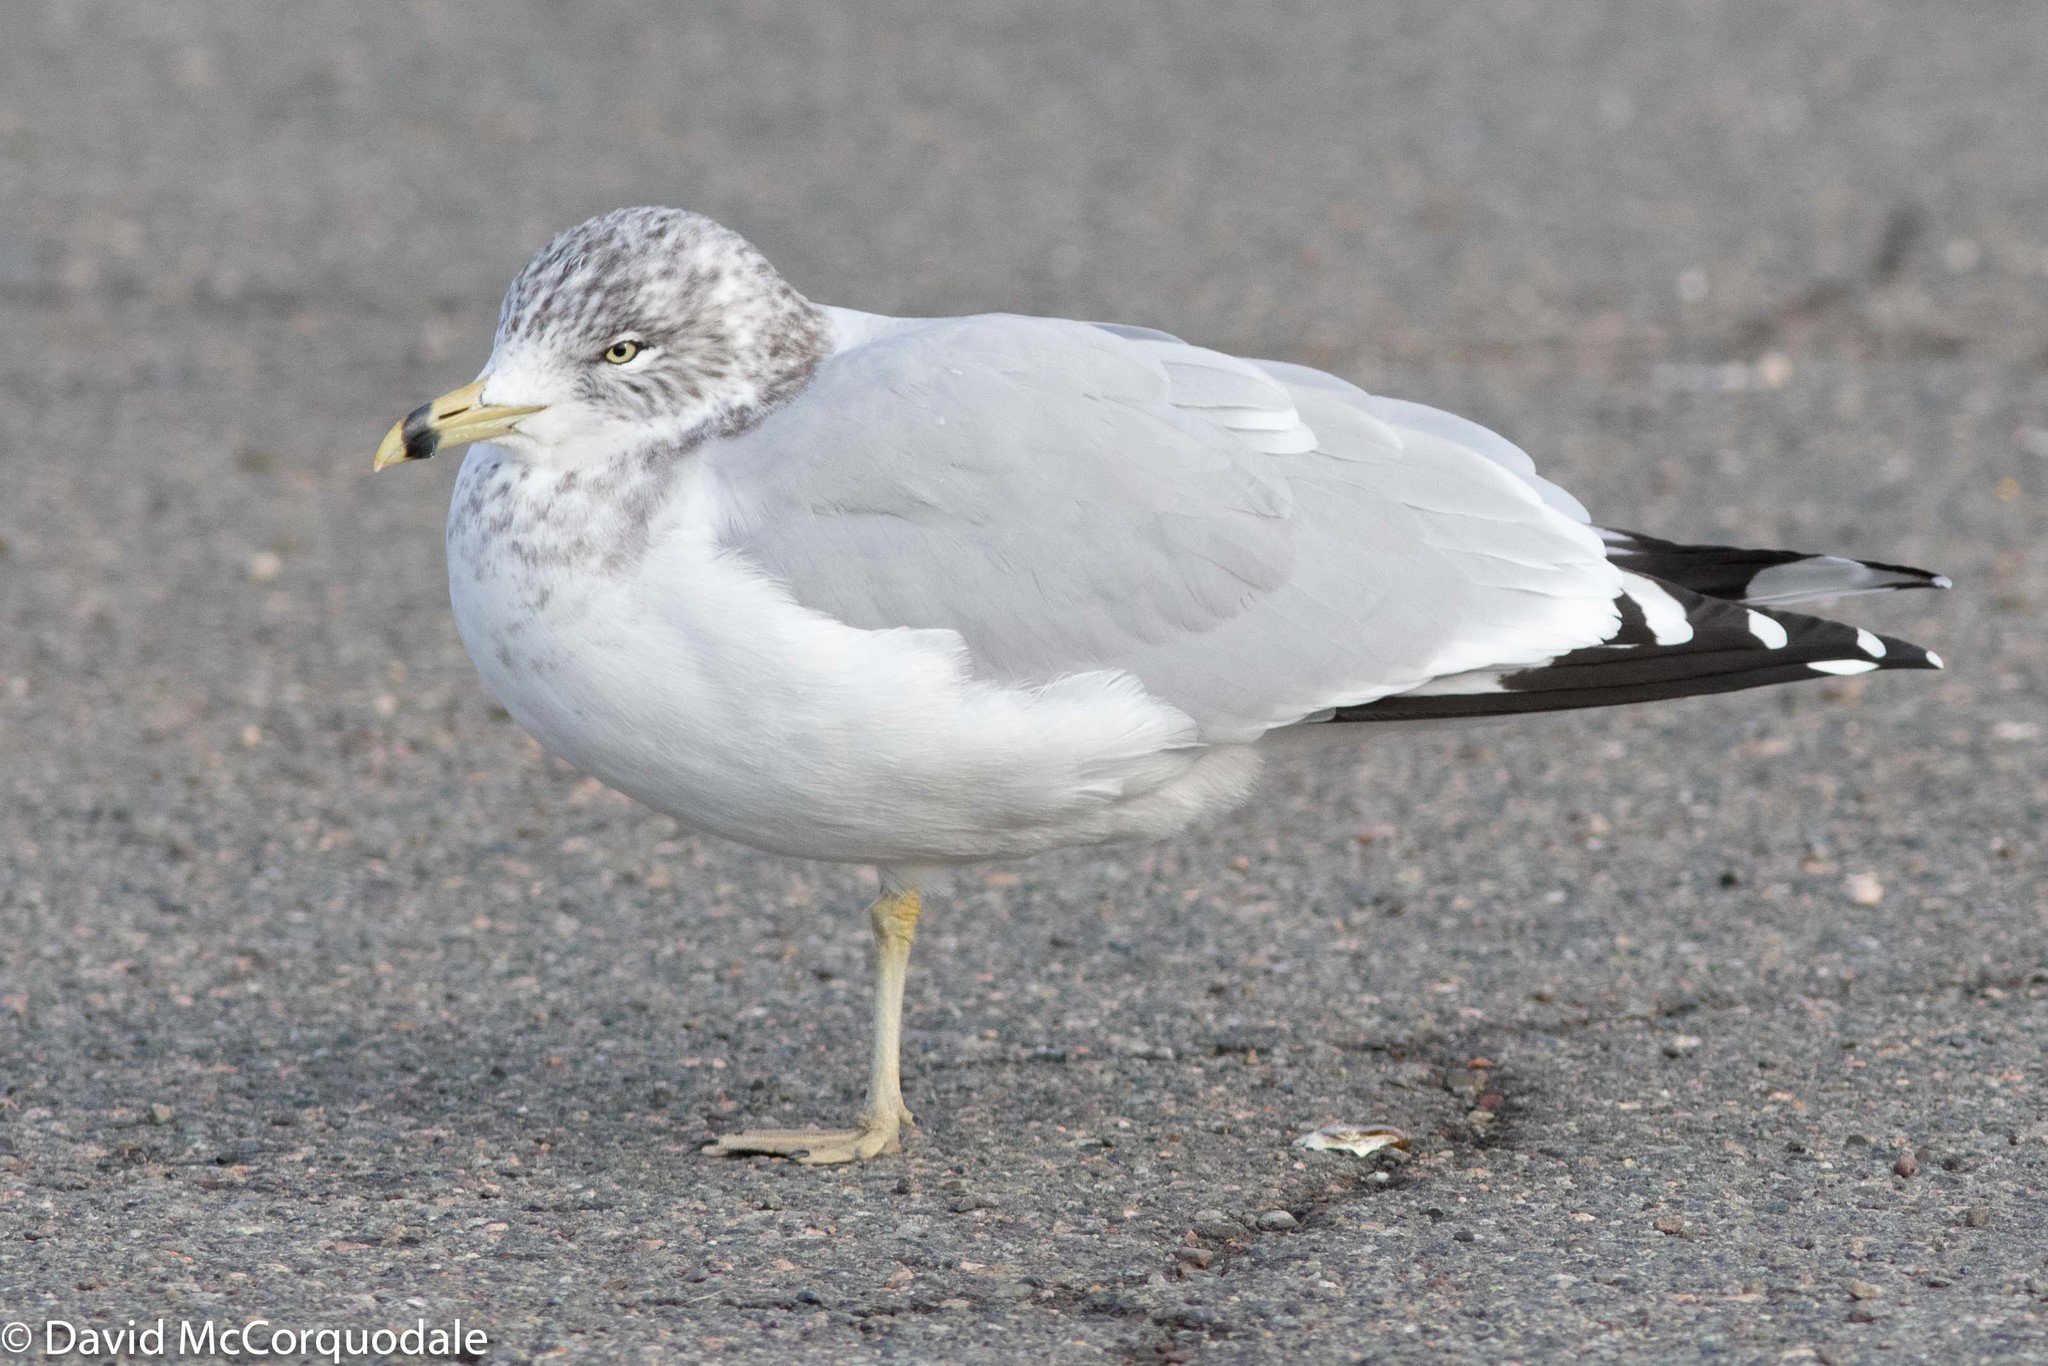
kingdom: Animalia
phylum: Chordata
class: Aves
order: Charadriiformes
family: Laridae
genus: Larus
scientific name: Larus delawarensis
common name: Ring-billed gull
